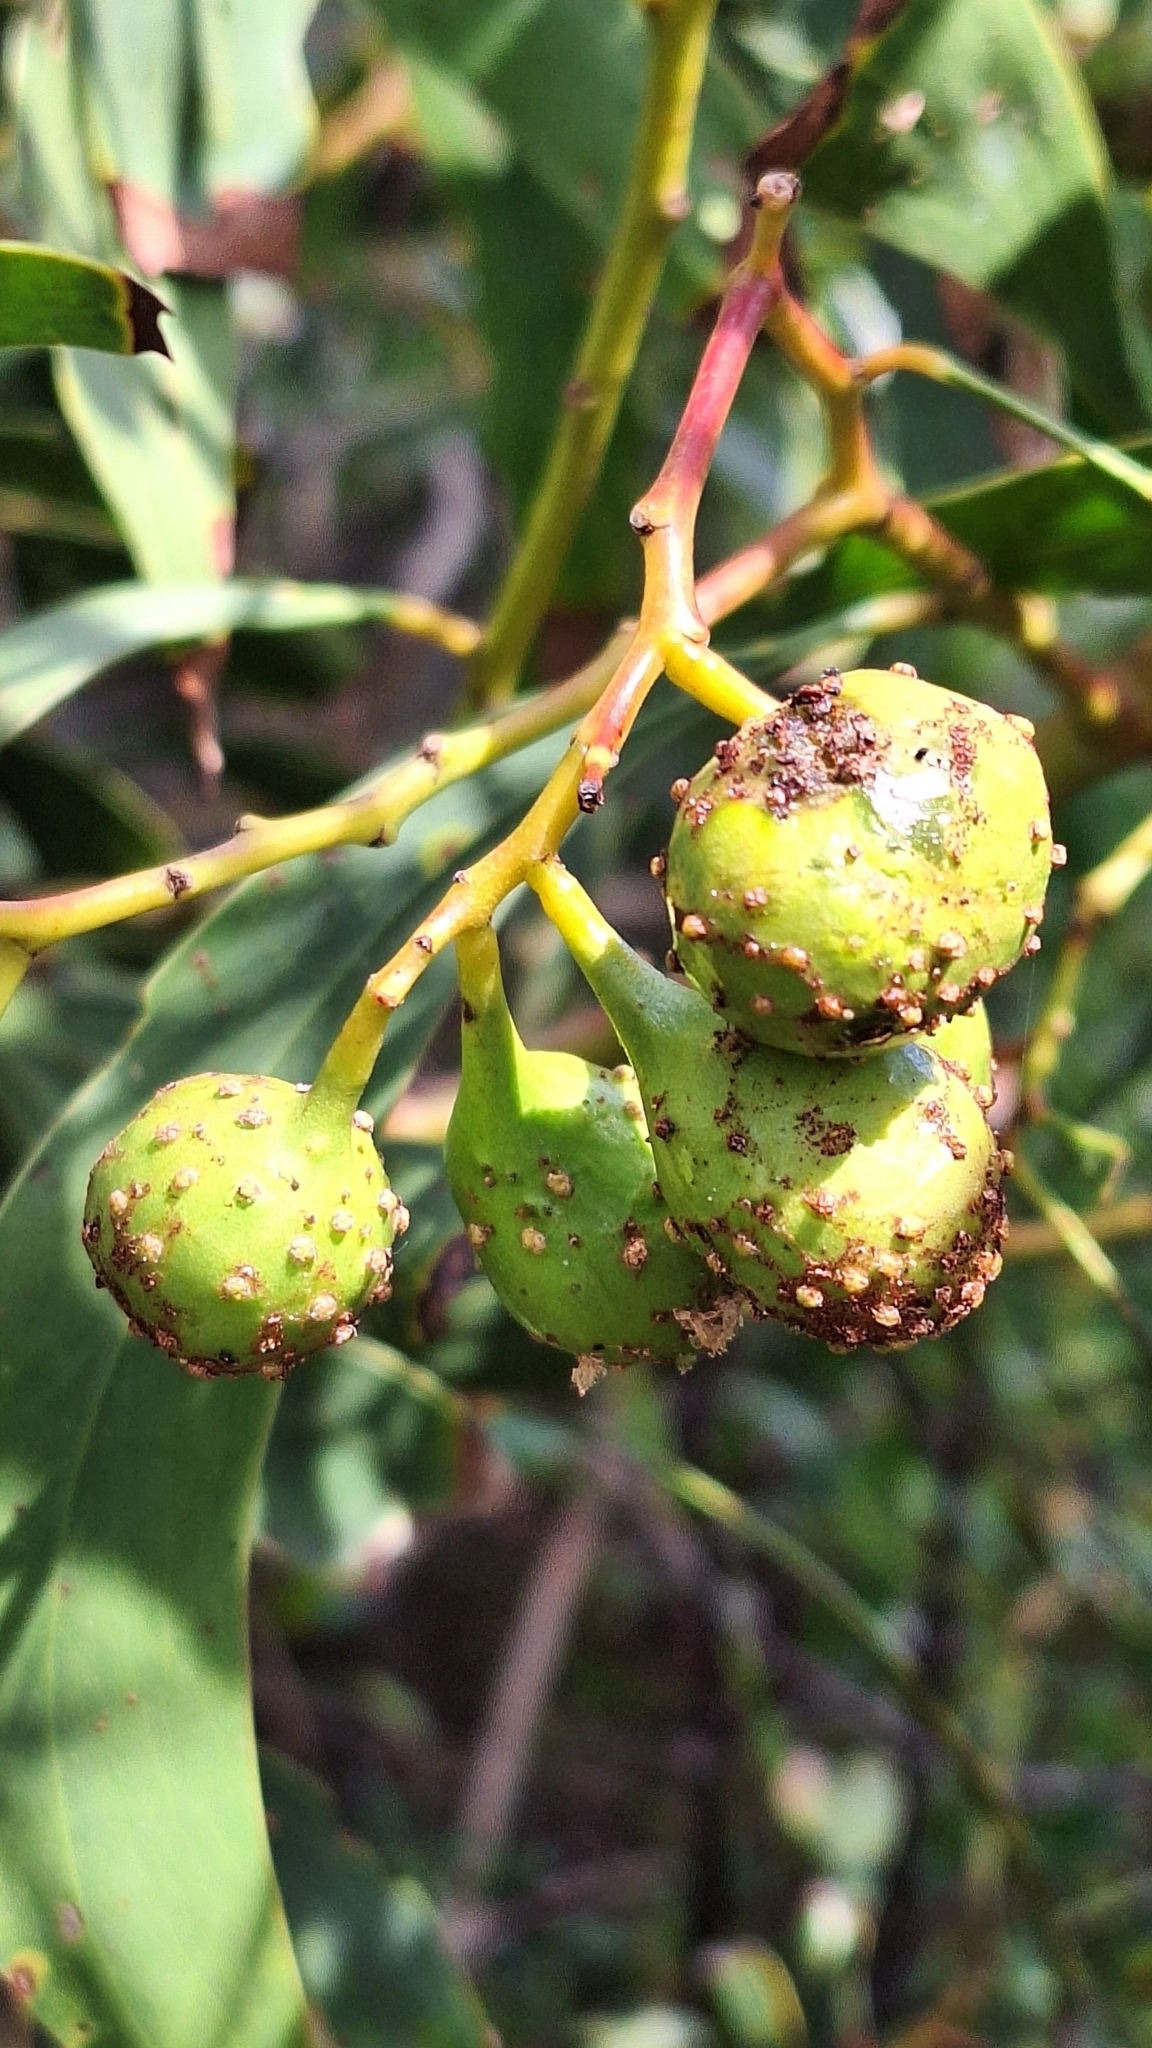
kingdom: Animalia
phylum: Arthropoda
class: Insecta
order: Hymenoptera
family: Pteromalidae
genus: Trichilogaster
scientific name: Trichilogaster signiventris
